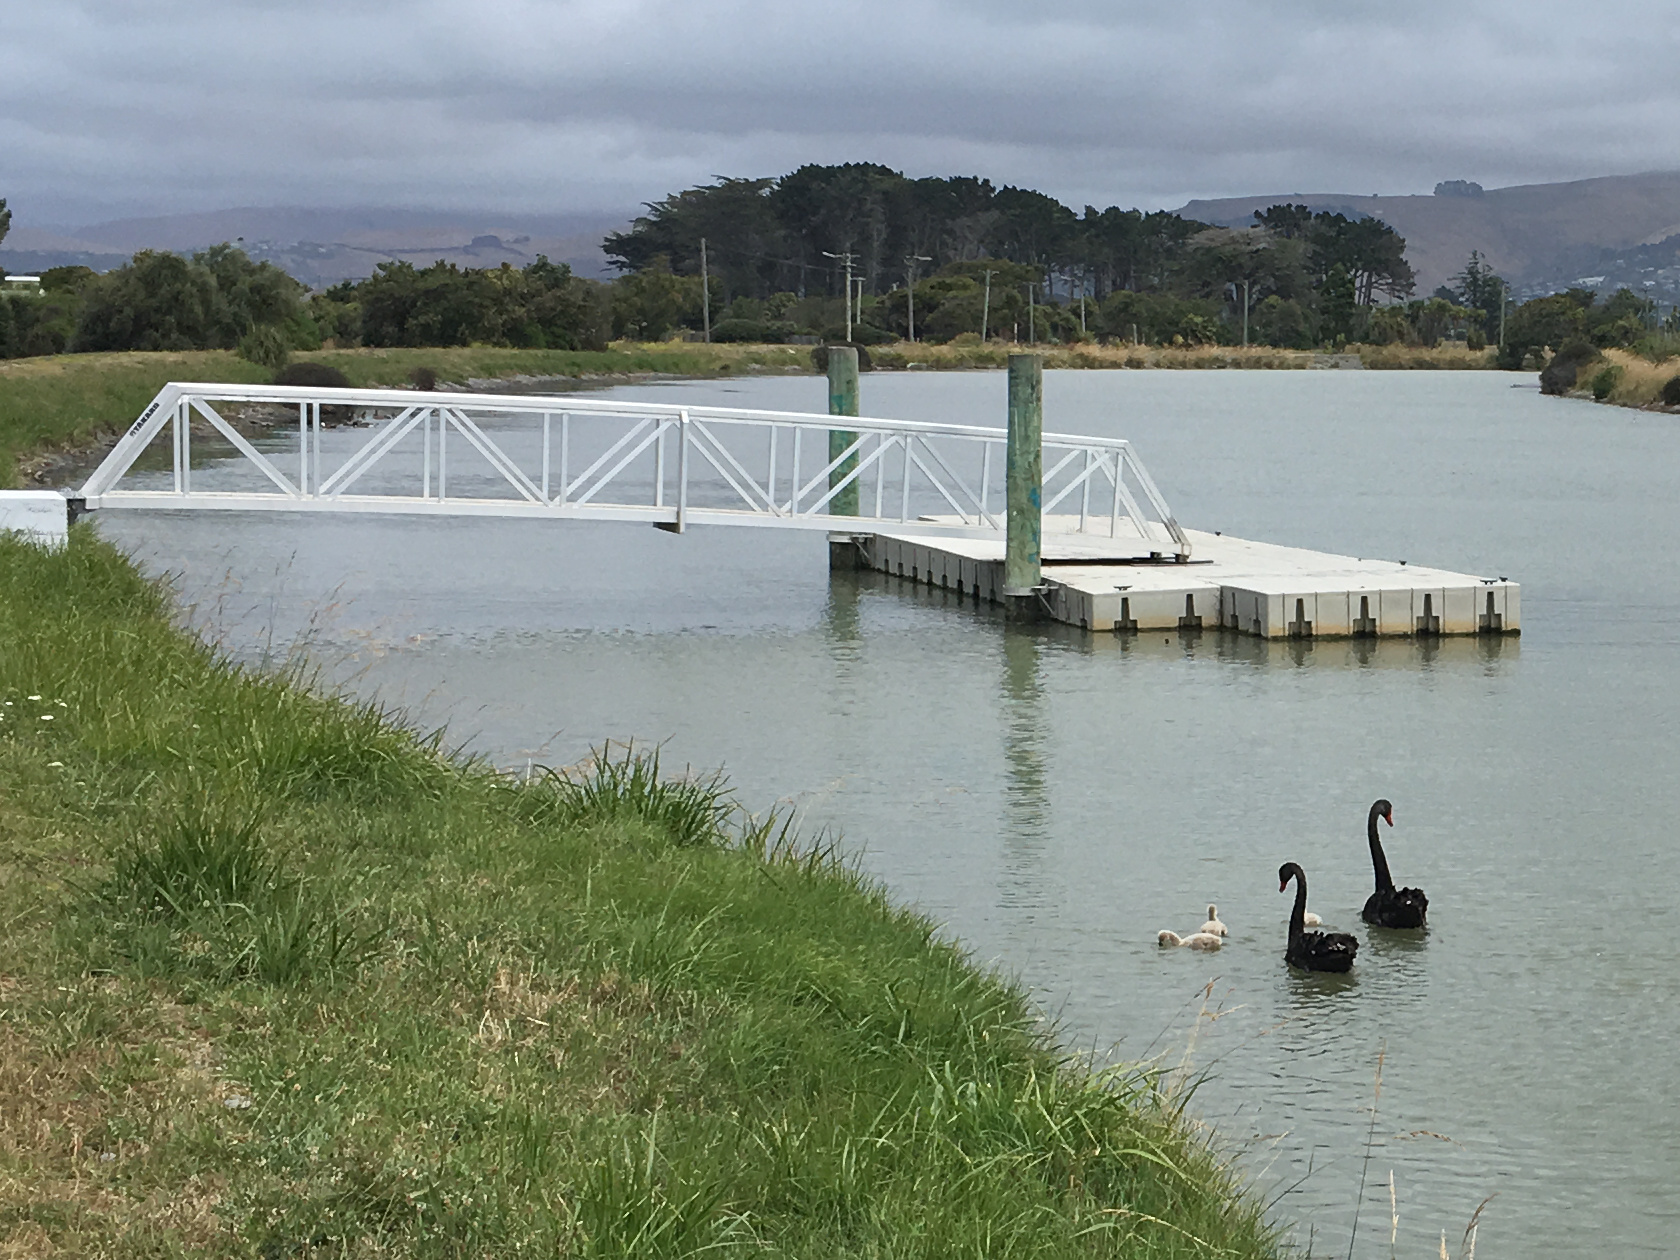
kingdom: Animalia
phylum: Chordata
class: Aves
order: Anseriformes
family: Anatidae
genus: Cygnus
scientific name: Cygnus atratus
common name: Black swan
